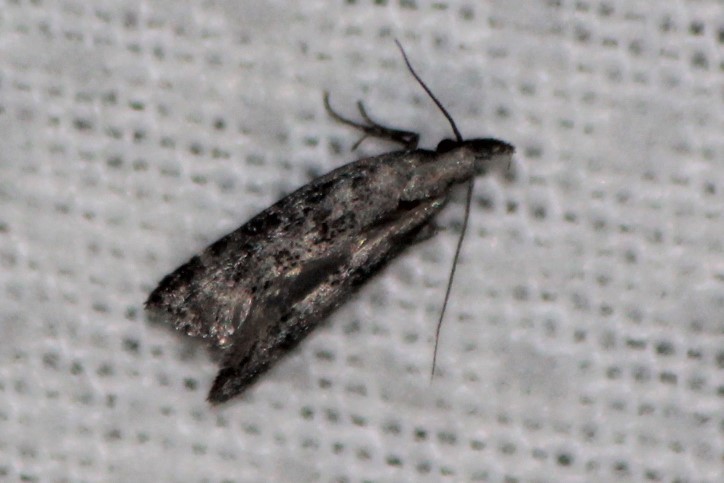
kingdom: Animalia
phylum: Arthropoda
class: Insecta
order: Lepidoptera
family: Gelechiidae
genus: Dichomeris
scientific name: Dichomeris inversella
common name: Inverse dichomeris moth
